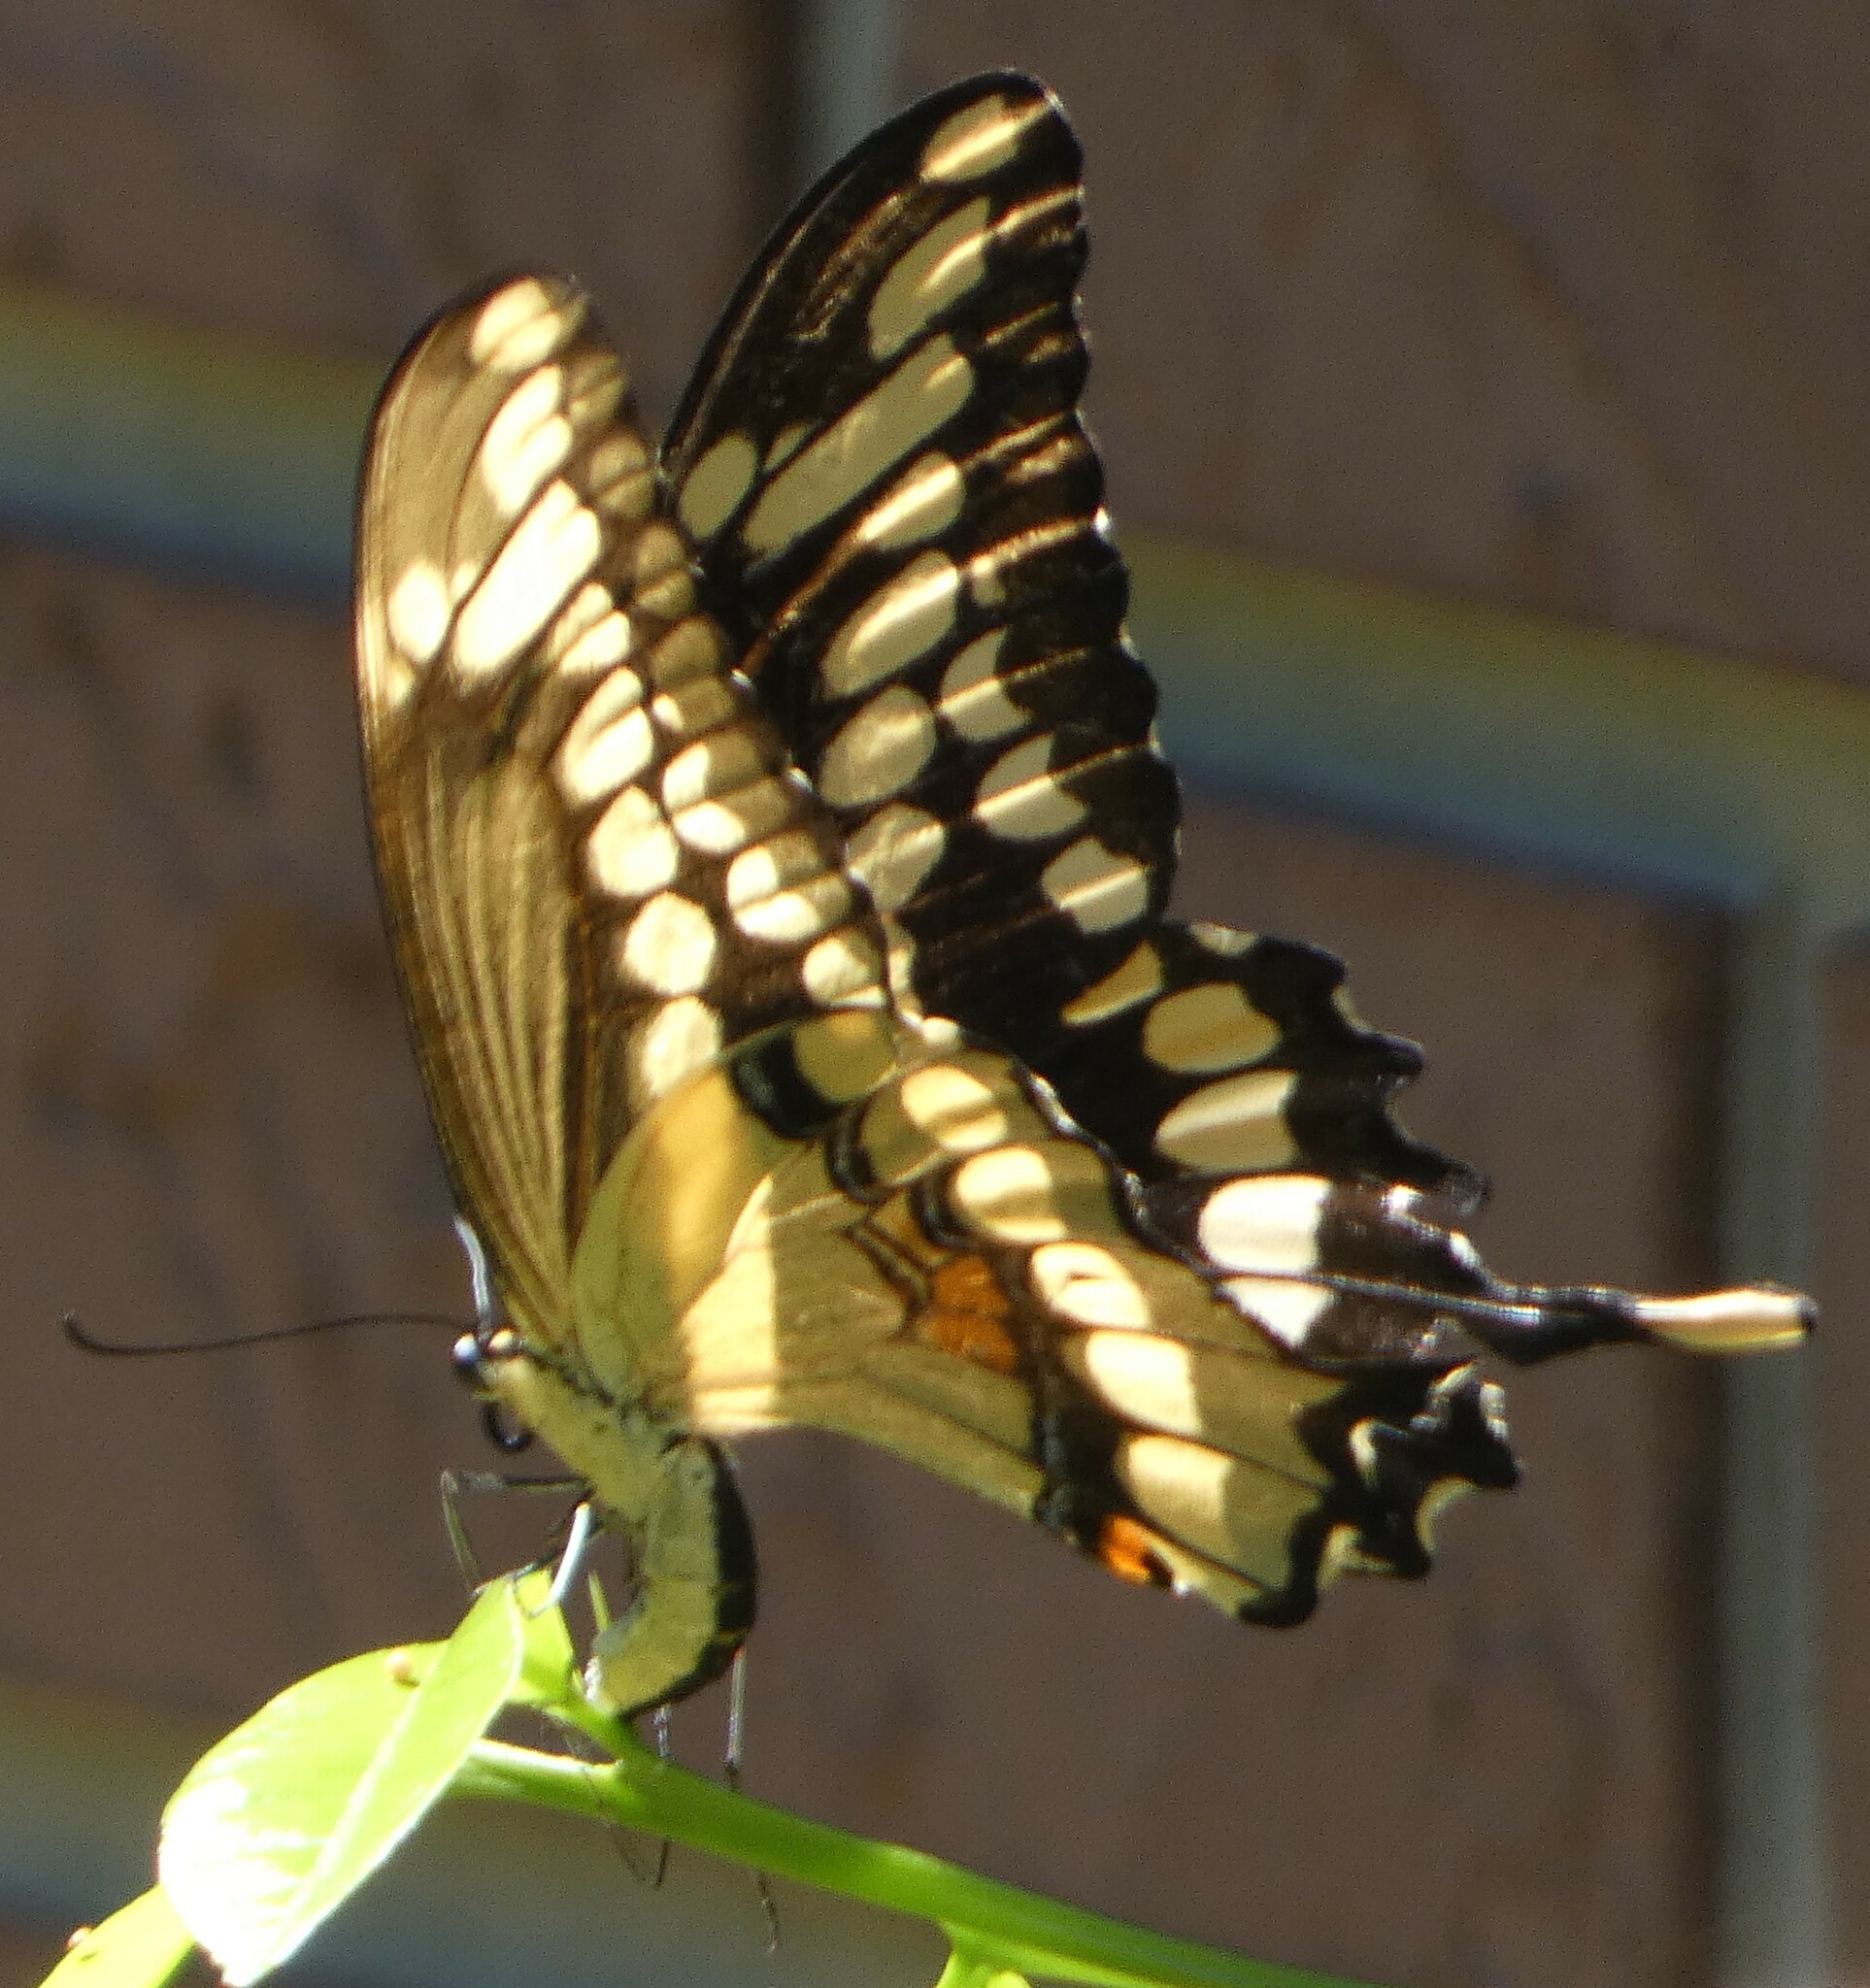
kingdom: Animalia
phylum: Arthropoda
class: Insecta
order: Lepidoptera
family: Papilionidae
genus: Papilio
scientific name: Papilio cresphontes
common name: Giant swallowtail
